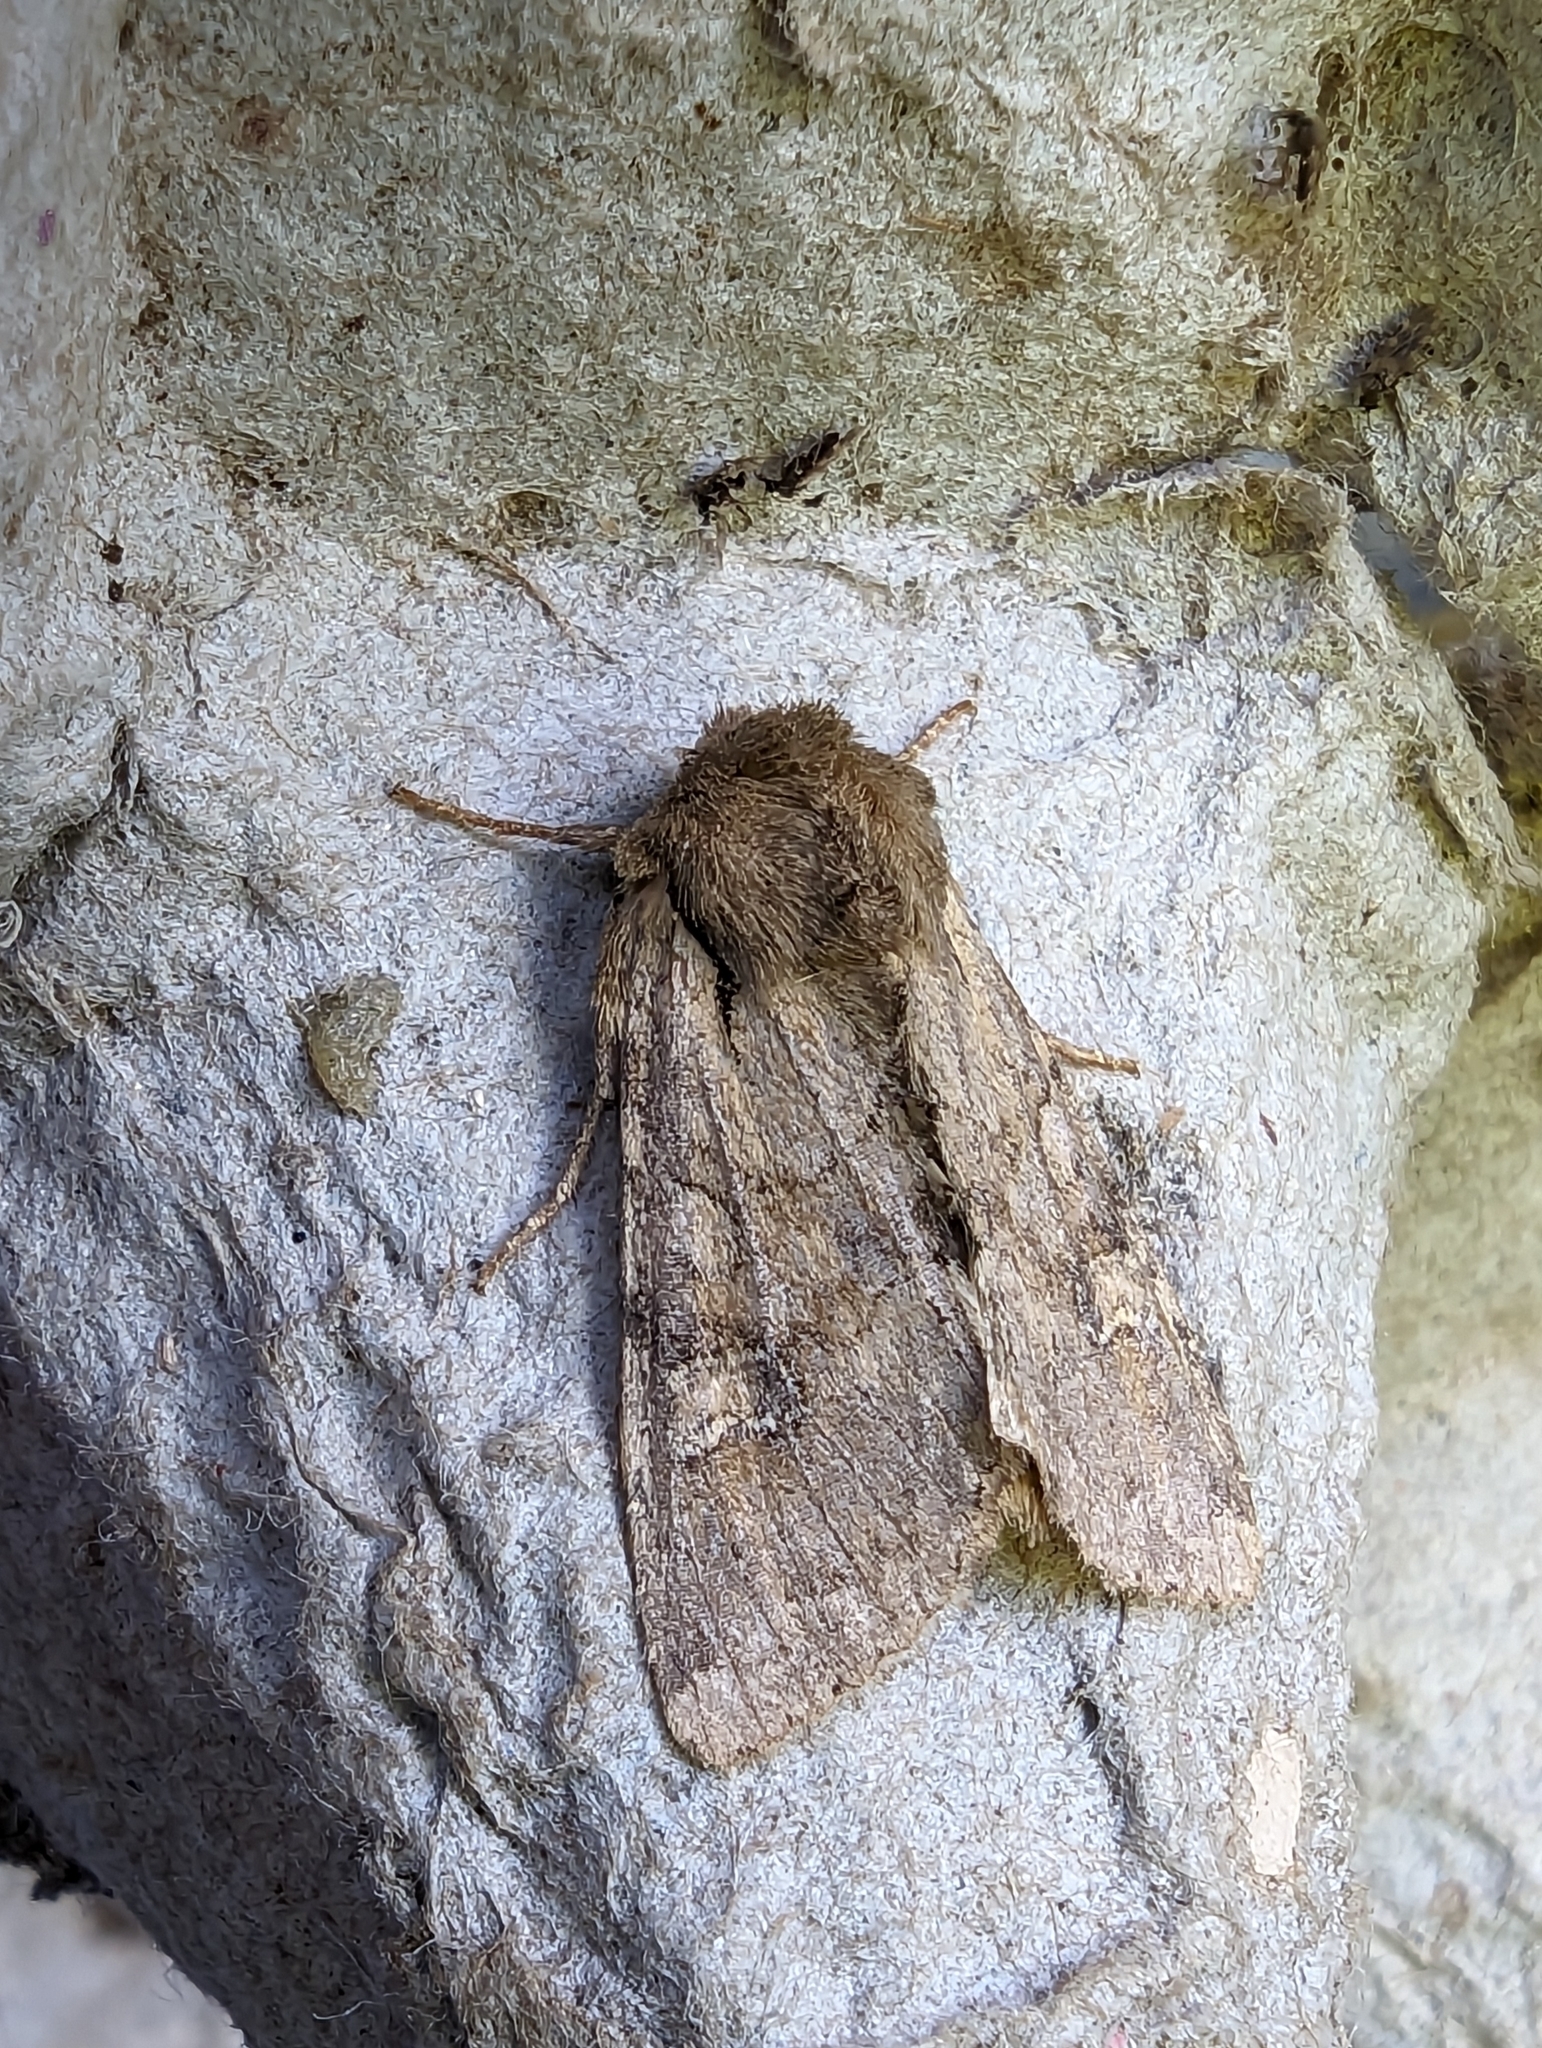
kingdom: Animalia
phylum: Arthropoda
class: Insecta
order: Lepidoptera
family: Noctuidae
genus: Apamea
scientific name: Apamea sordens
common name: Rustic shoulder-knot
